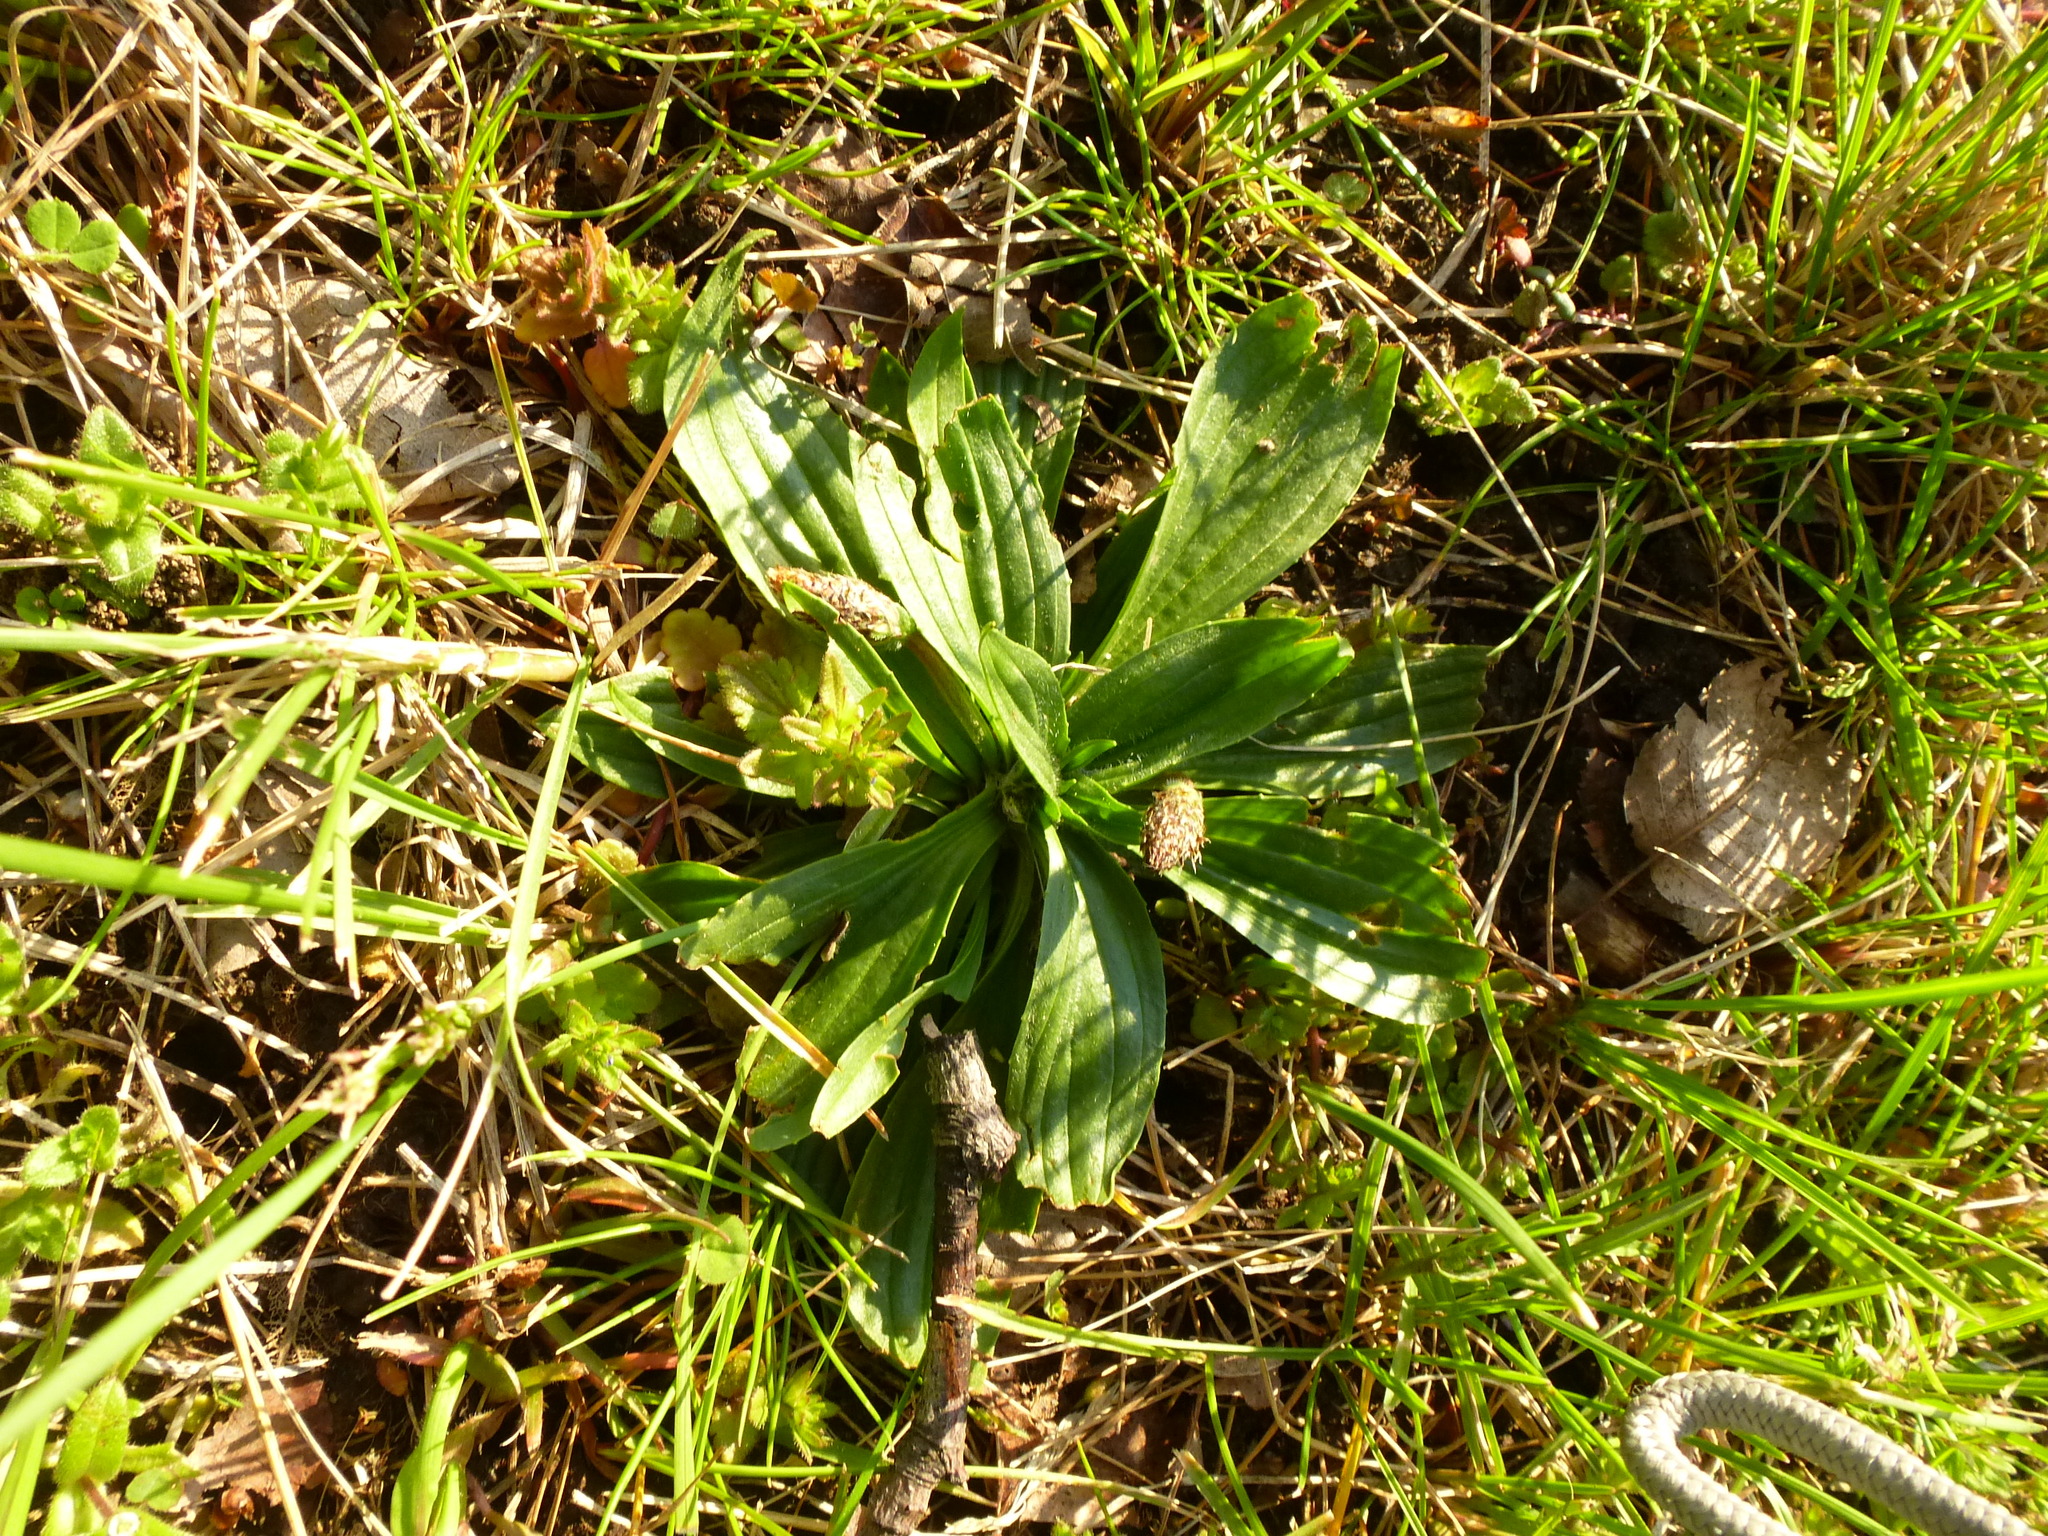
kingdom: Plantae
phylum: Tracheophyta
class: Magnoliopsida
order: Lamiales
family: Plantaginaceae
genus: Plantago
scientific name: Plantago lanceolata
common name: Ribwort plantain
